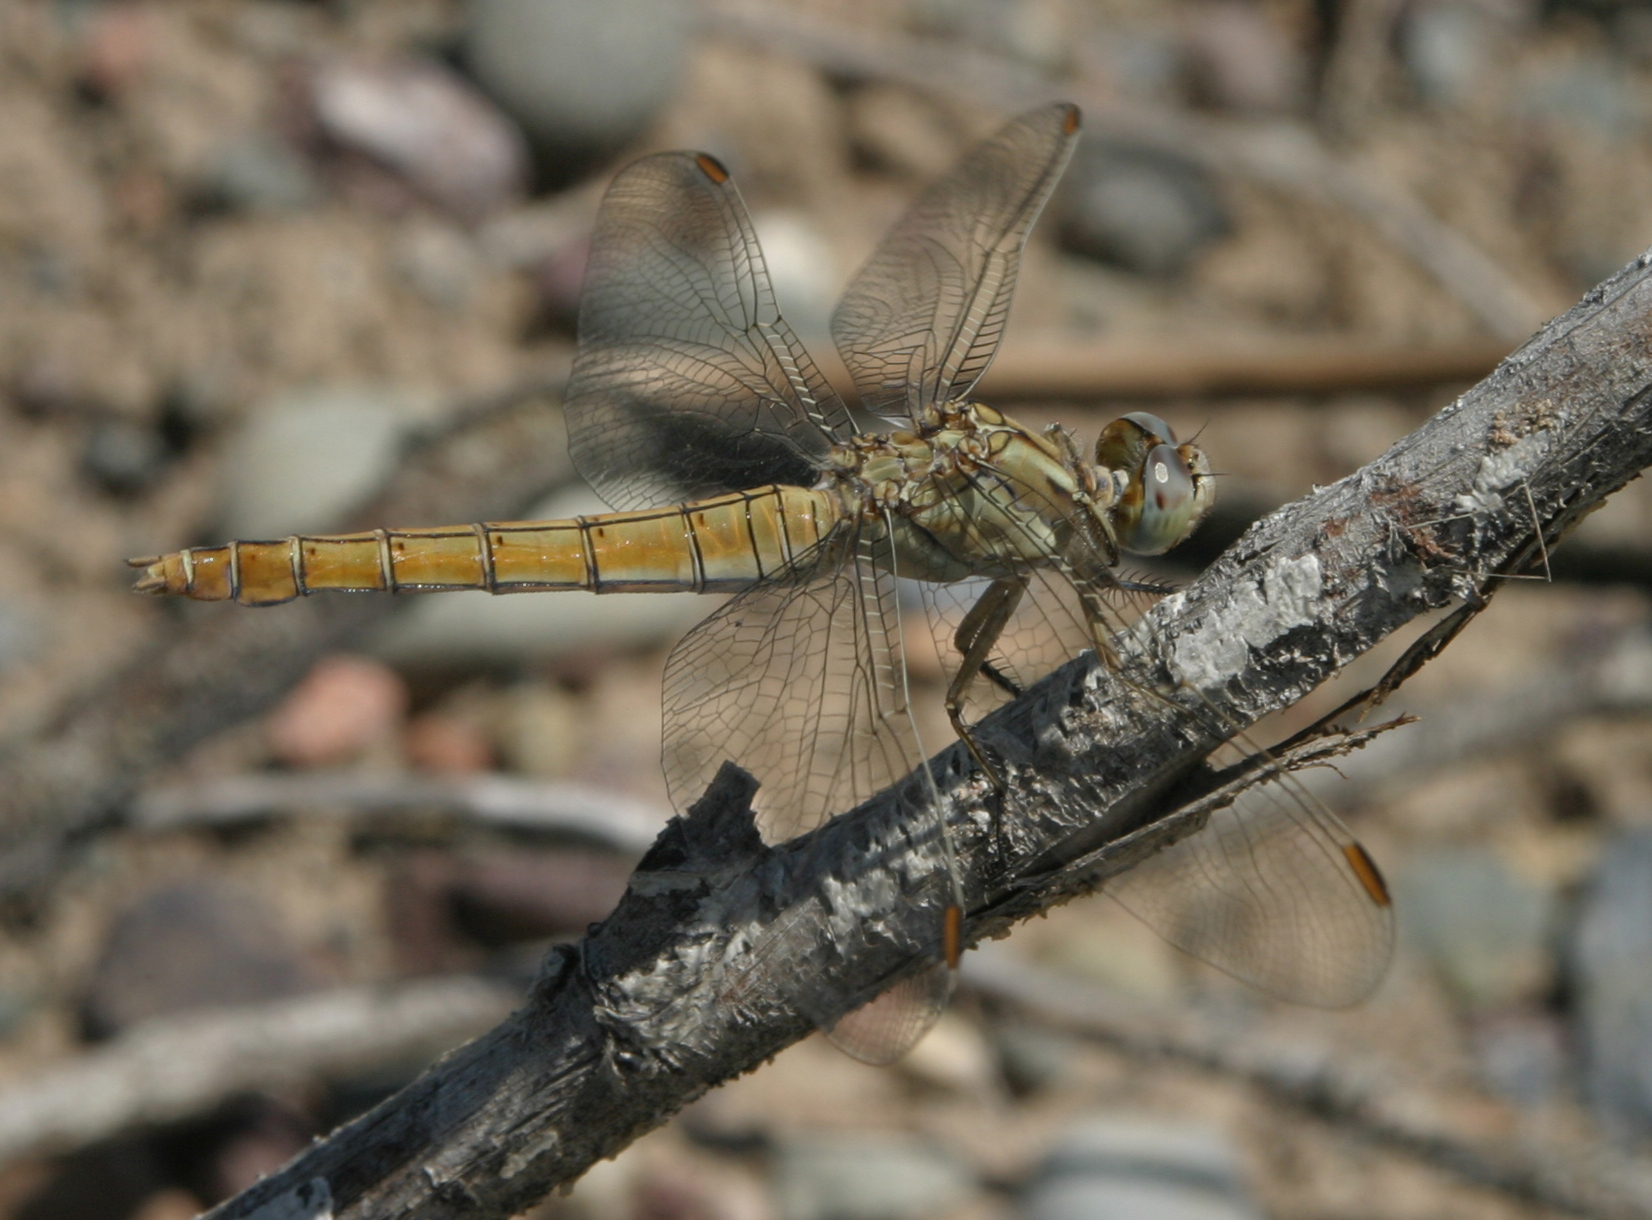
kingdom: Animalia
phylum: Arthropoda
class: Insecta
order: Odonata
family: Libellulidae
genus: Orthetrum
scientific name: Orthetrum brunneum
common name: Southern skimmer
